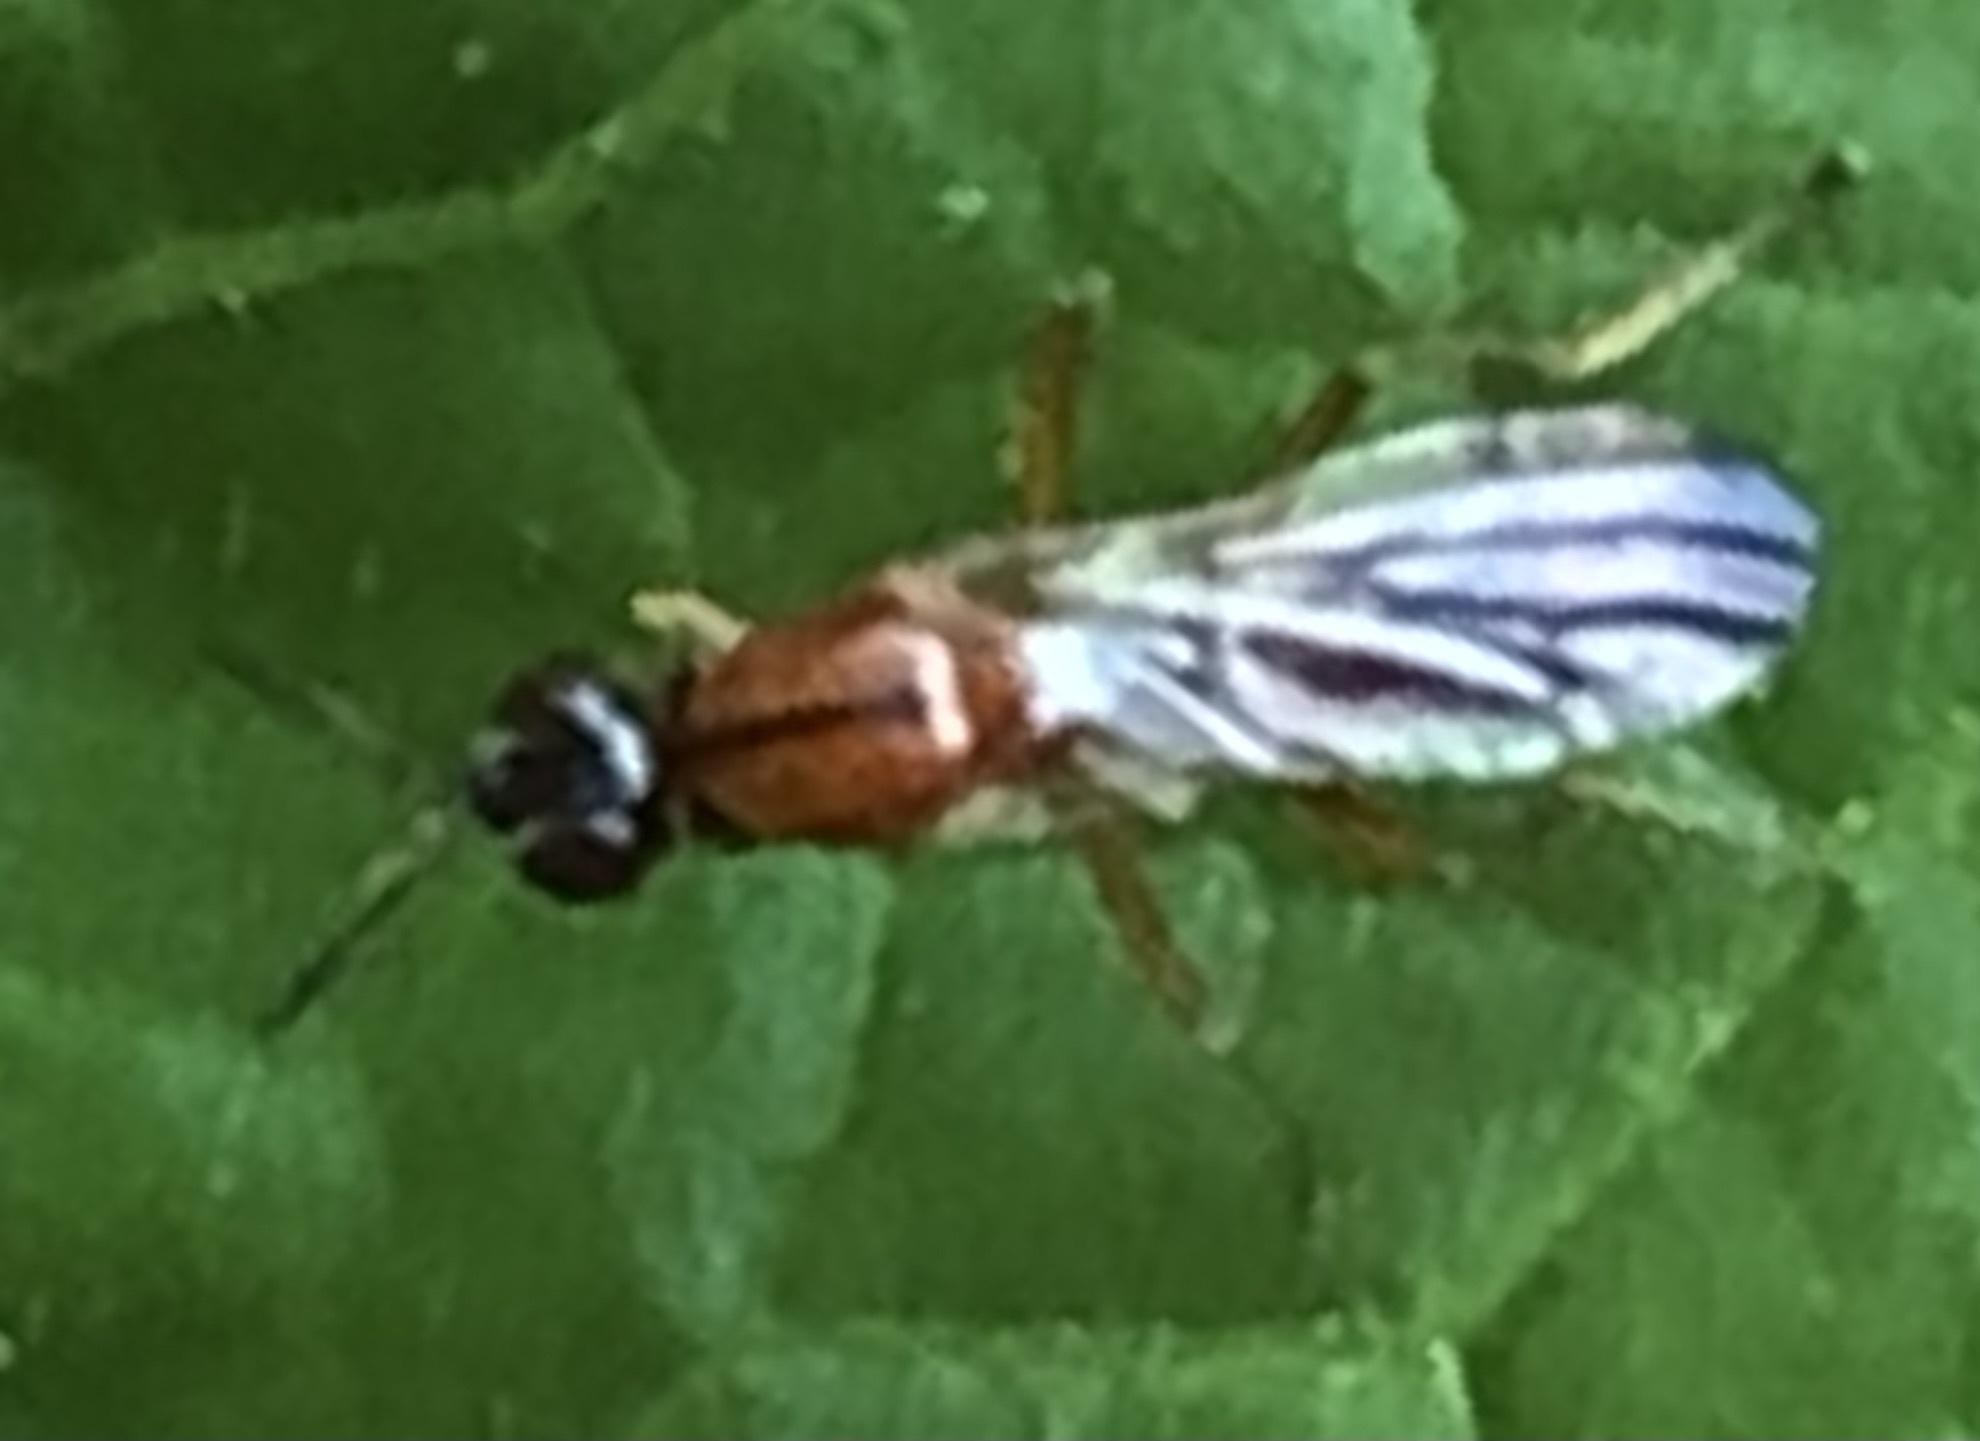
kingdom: Animalia
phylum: Arthropoda
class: Insecta
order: Diptera
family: Psilidae
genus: Loxocera
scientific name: Loxocera cylindrica
